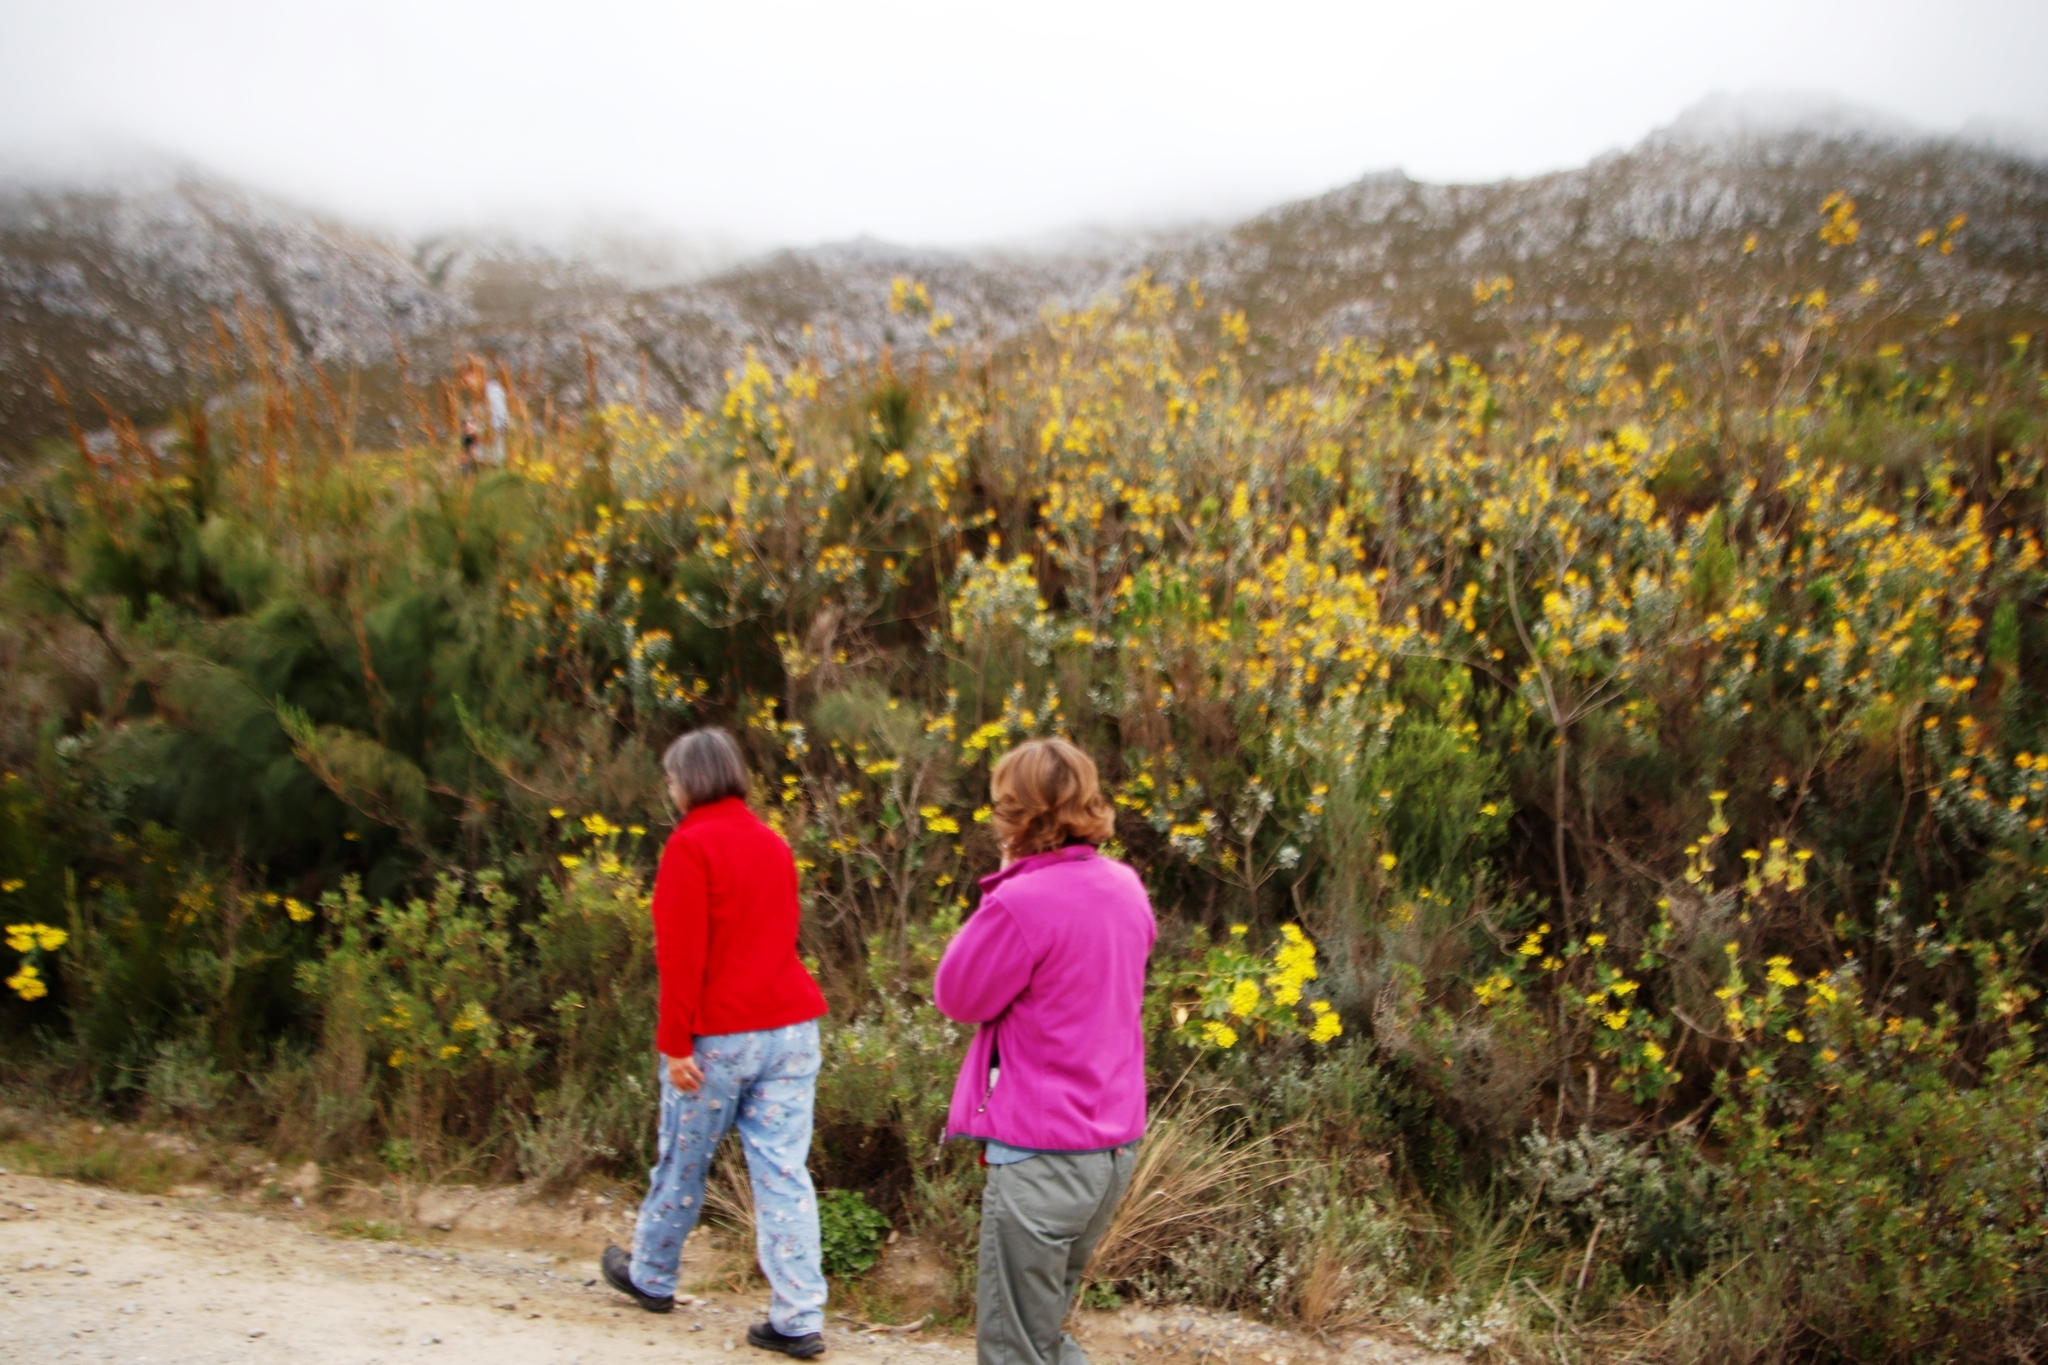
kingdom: Plantae
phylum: Tracheophyta
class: Magnoliopsida
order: Fabales
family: Fabaceae
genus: Stirtonanthus
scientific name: Stirtonanthus taylorianus
